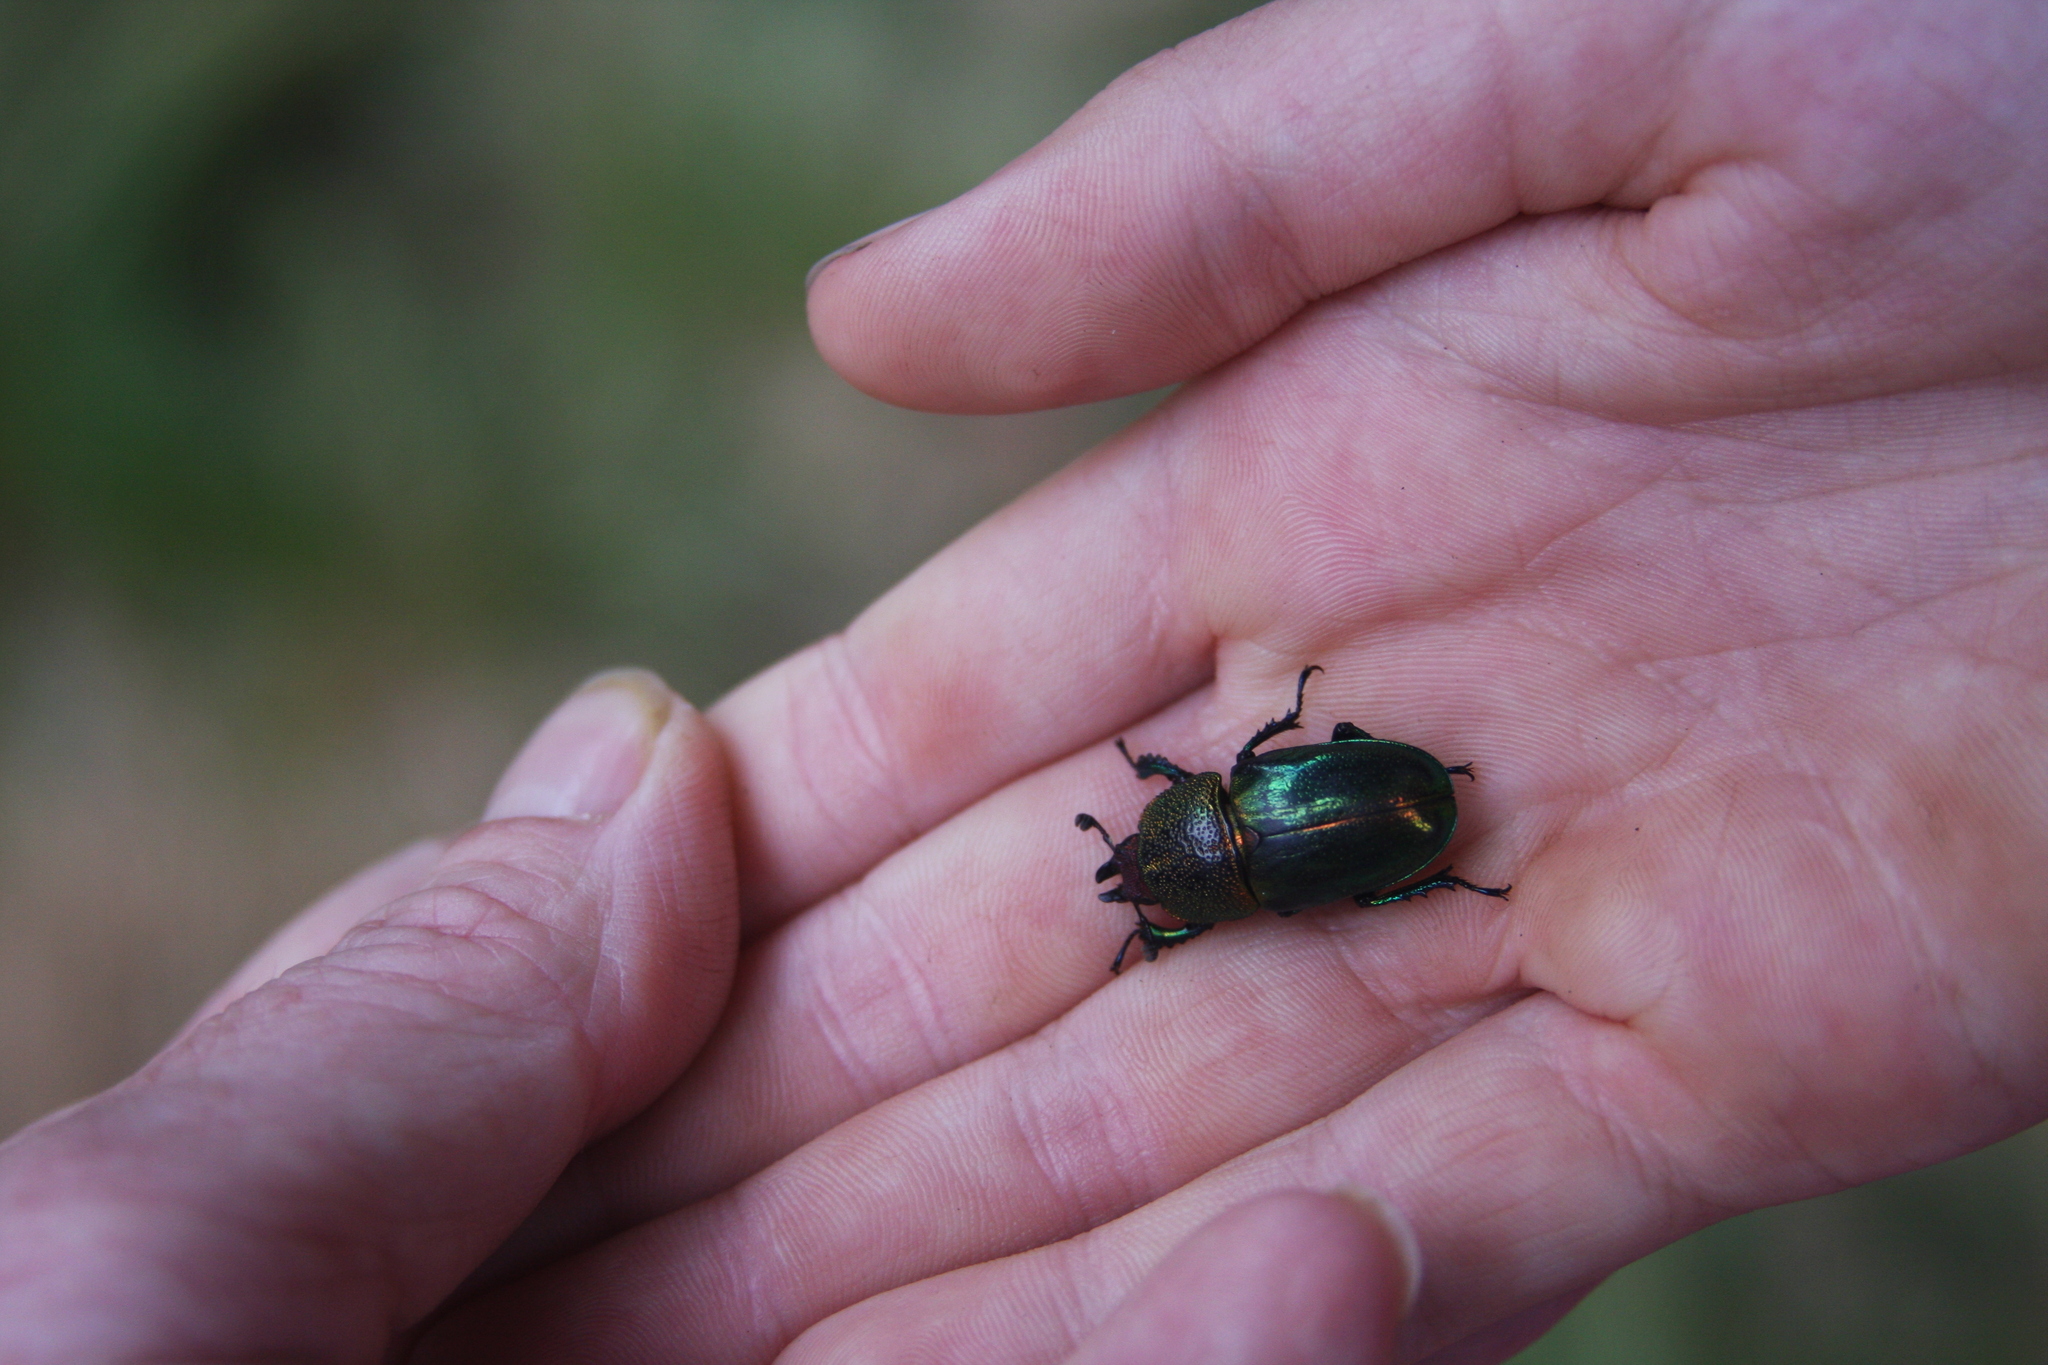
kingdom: Animalia
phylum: Arthropoda
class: Insecta
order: Coleoptera
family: Lucanidae
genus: Lamprima
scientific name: Lamprima aurata
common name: Golden stag beetle
